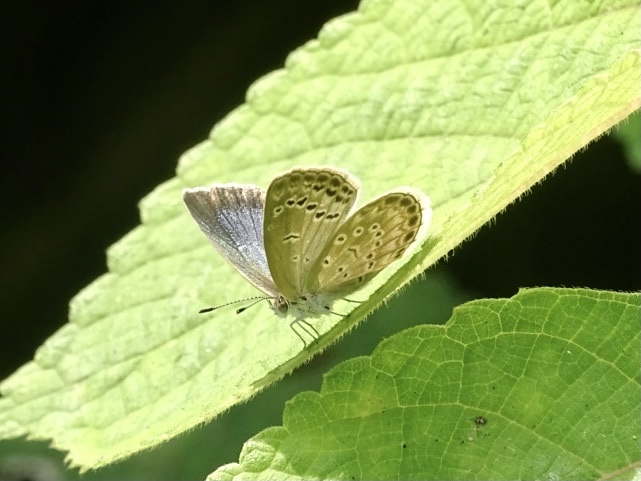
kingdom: Animalia
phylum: Arthropoda
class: Insecta
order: Lepidoptera
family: Lycaenidae
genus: Pseudozizeeria
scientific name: Pseudozizeeria maha
